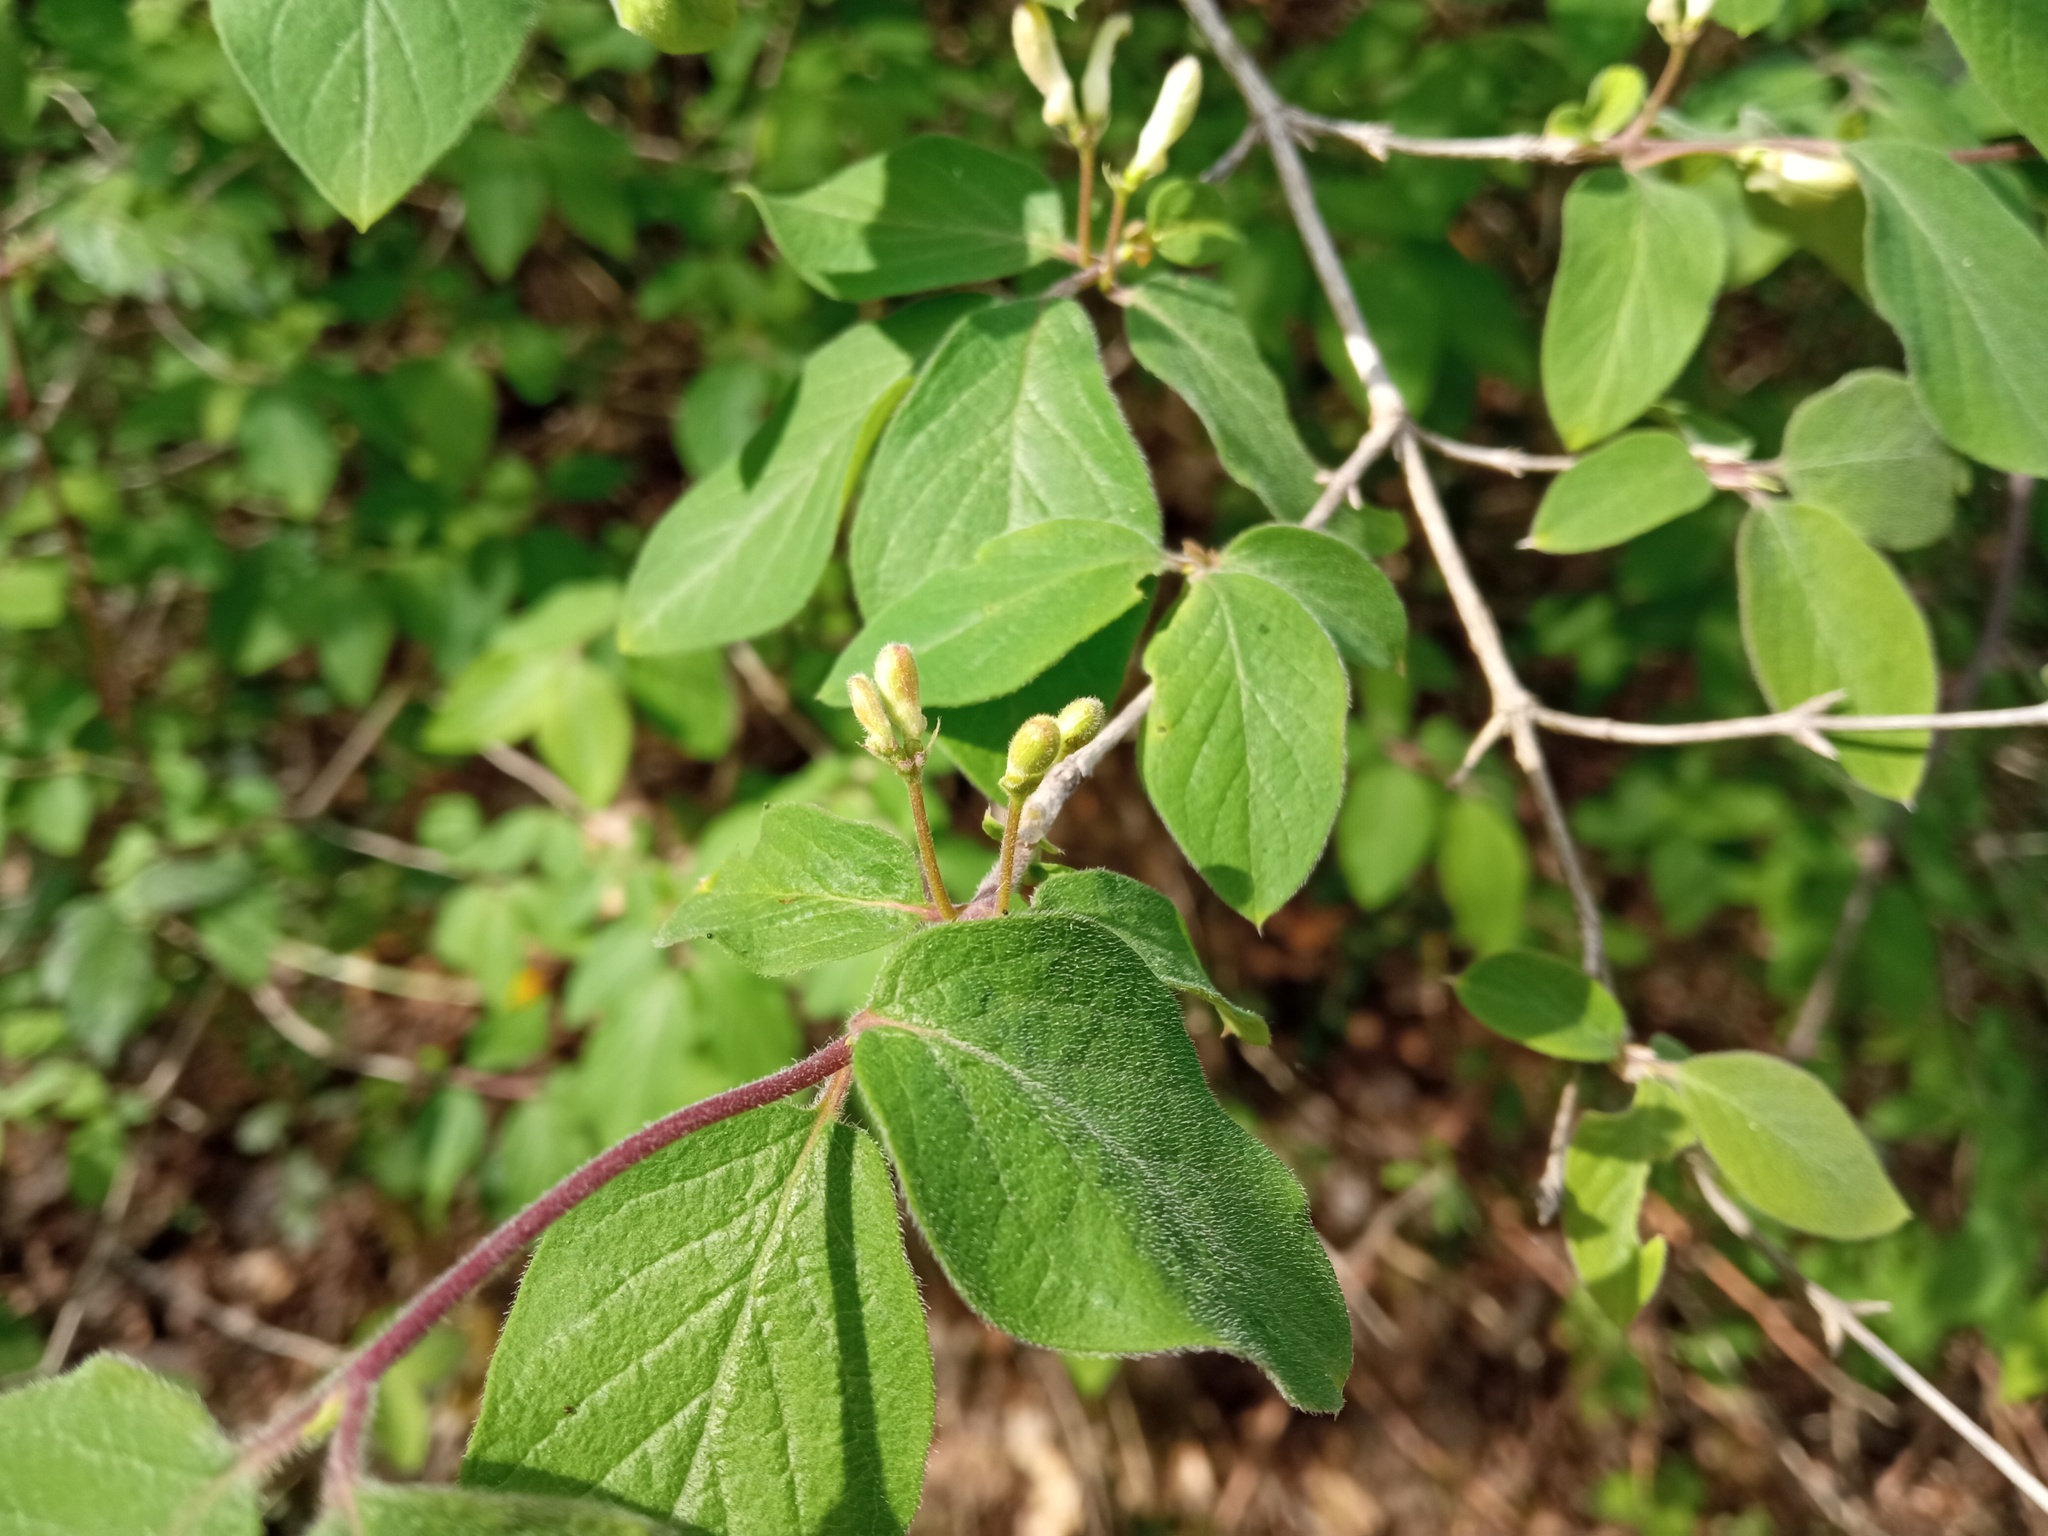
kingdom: Plantae
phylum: Tracheophyta
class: Magnoliopsida
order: Dipsacales
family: Caprifoliaceae
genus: Lonicera
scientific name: Lonicera xylosteum
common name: Fly honeysuckle
